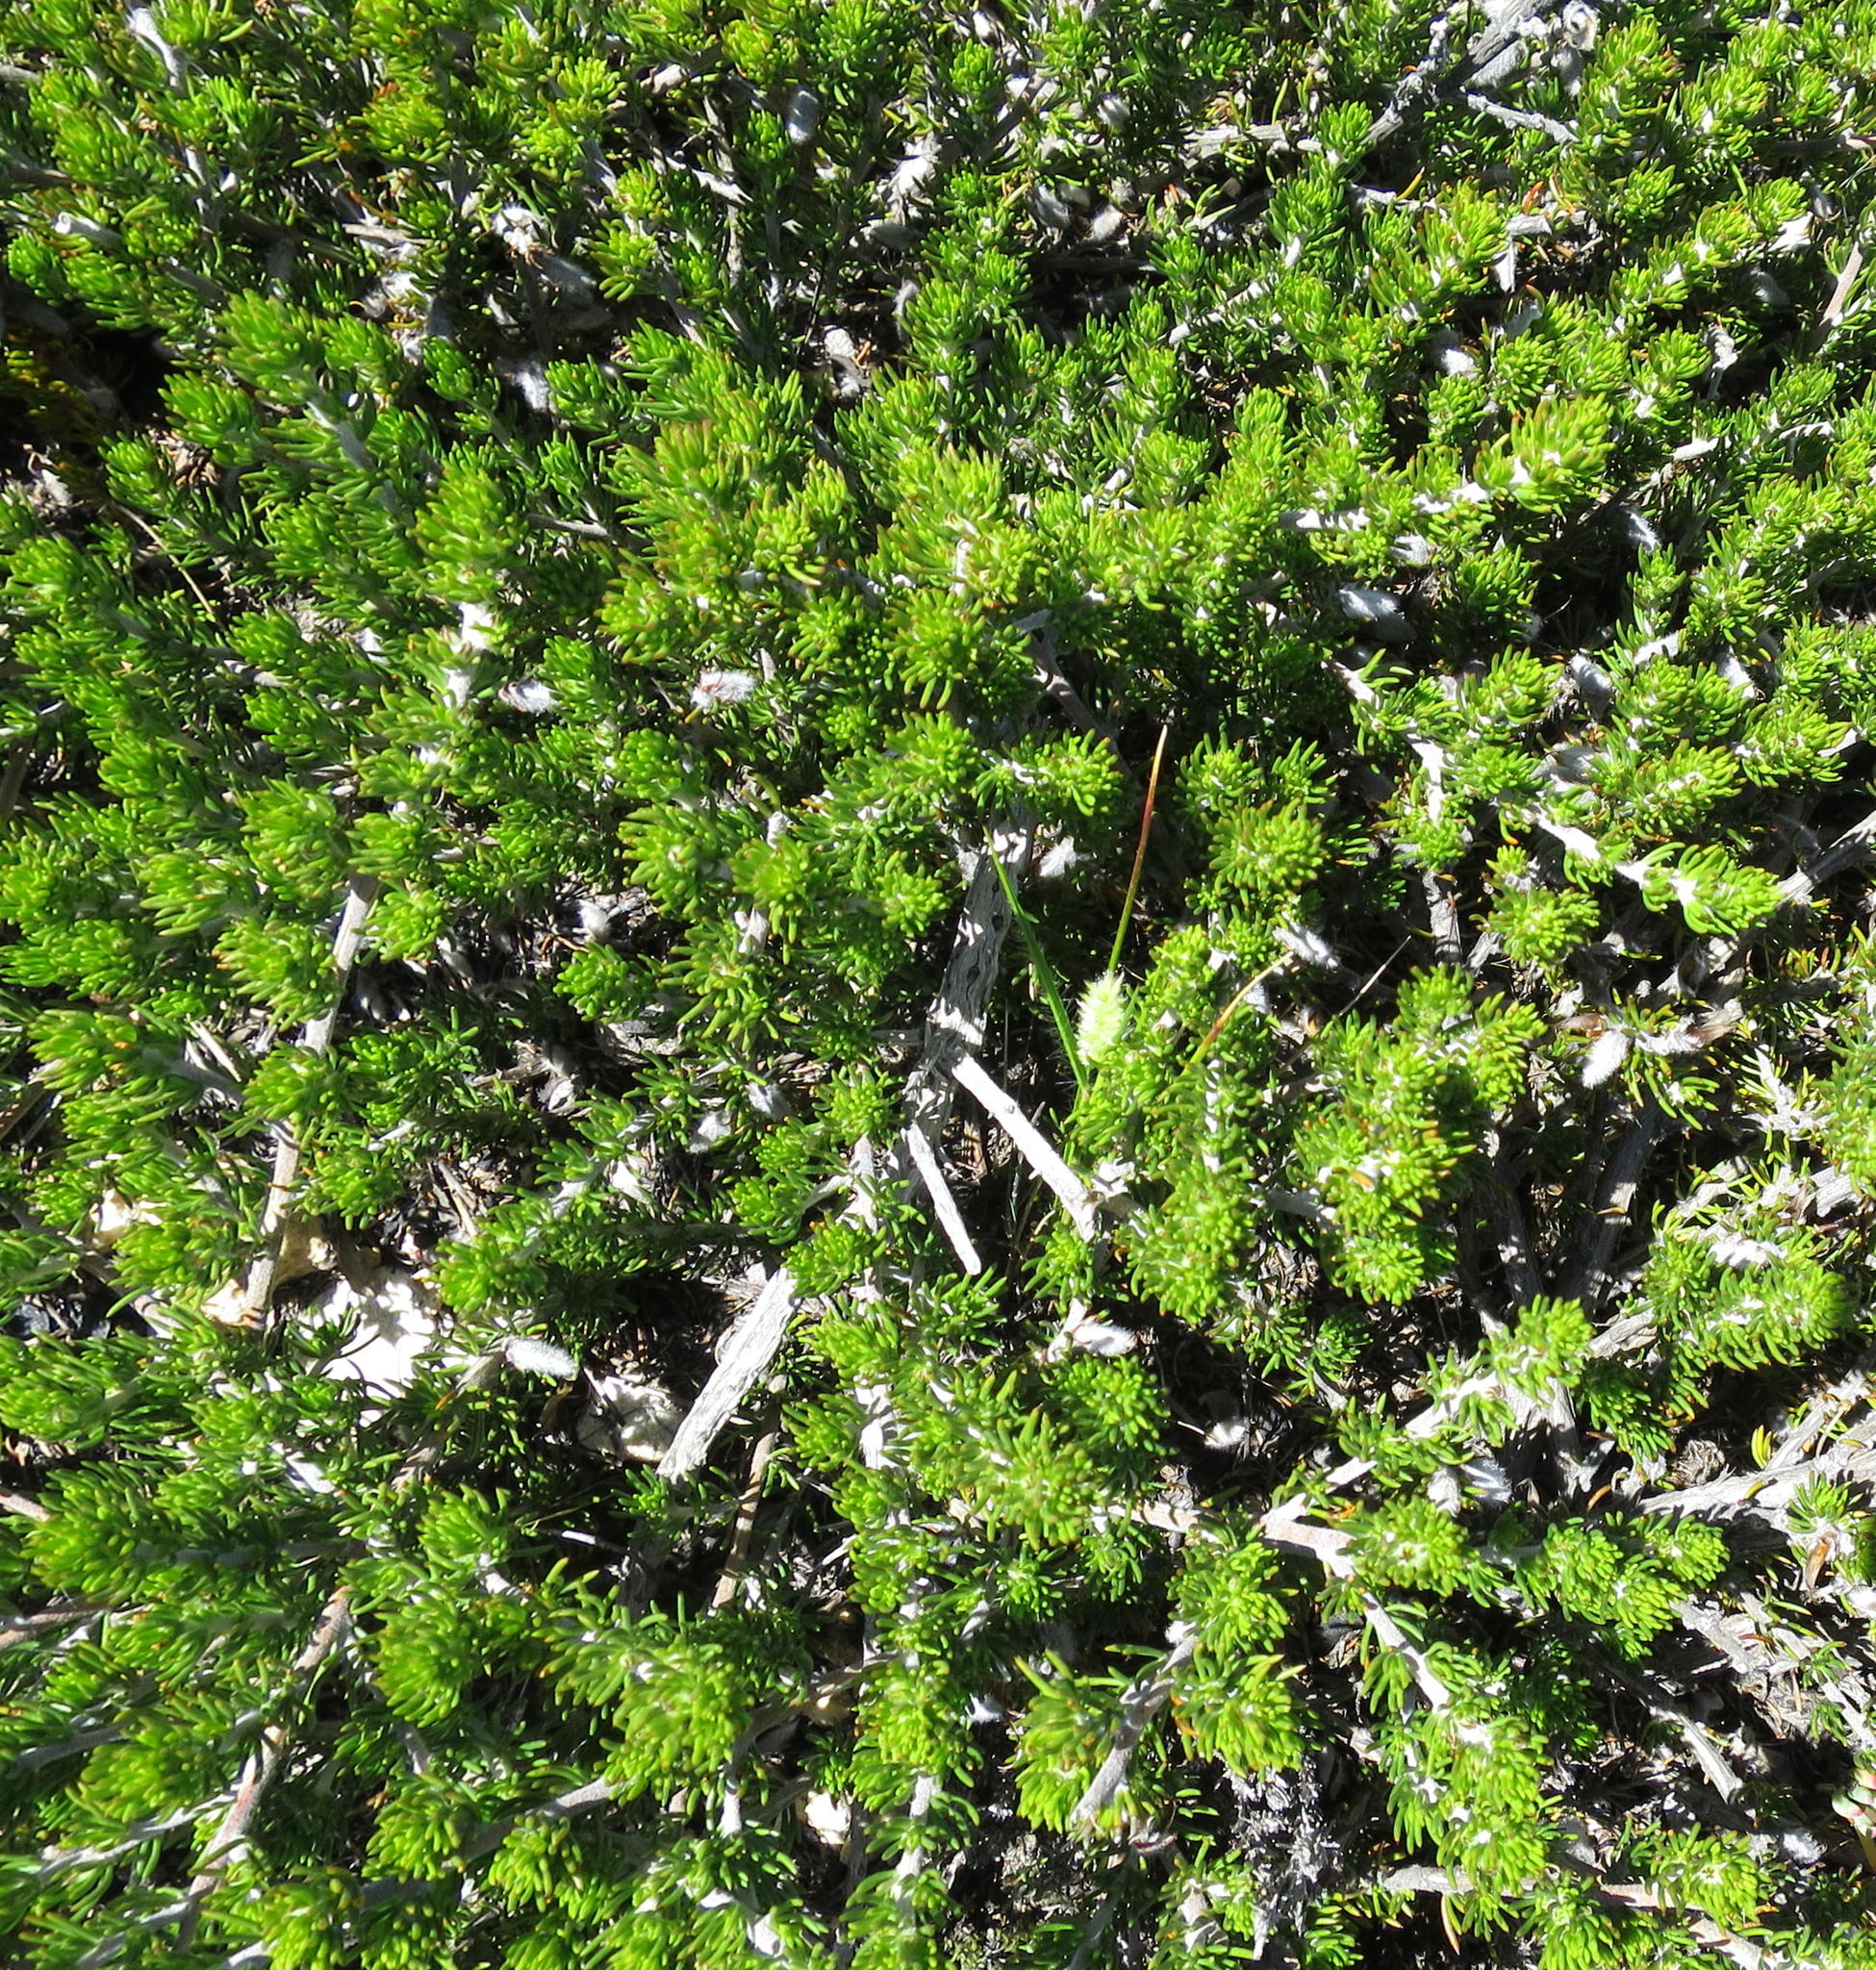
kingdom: Plantae
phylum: Tracheophyta
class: Magnoliopsida
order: Fabales
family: Fabaceae
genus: Aspalathus
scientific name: Aspalathus congesta
